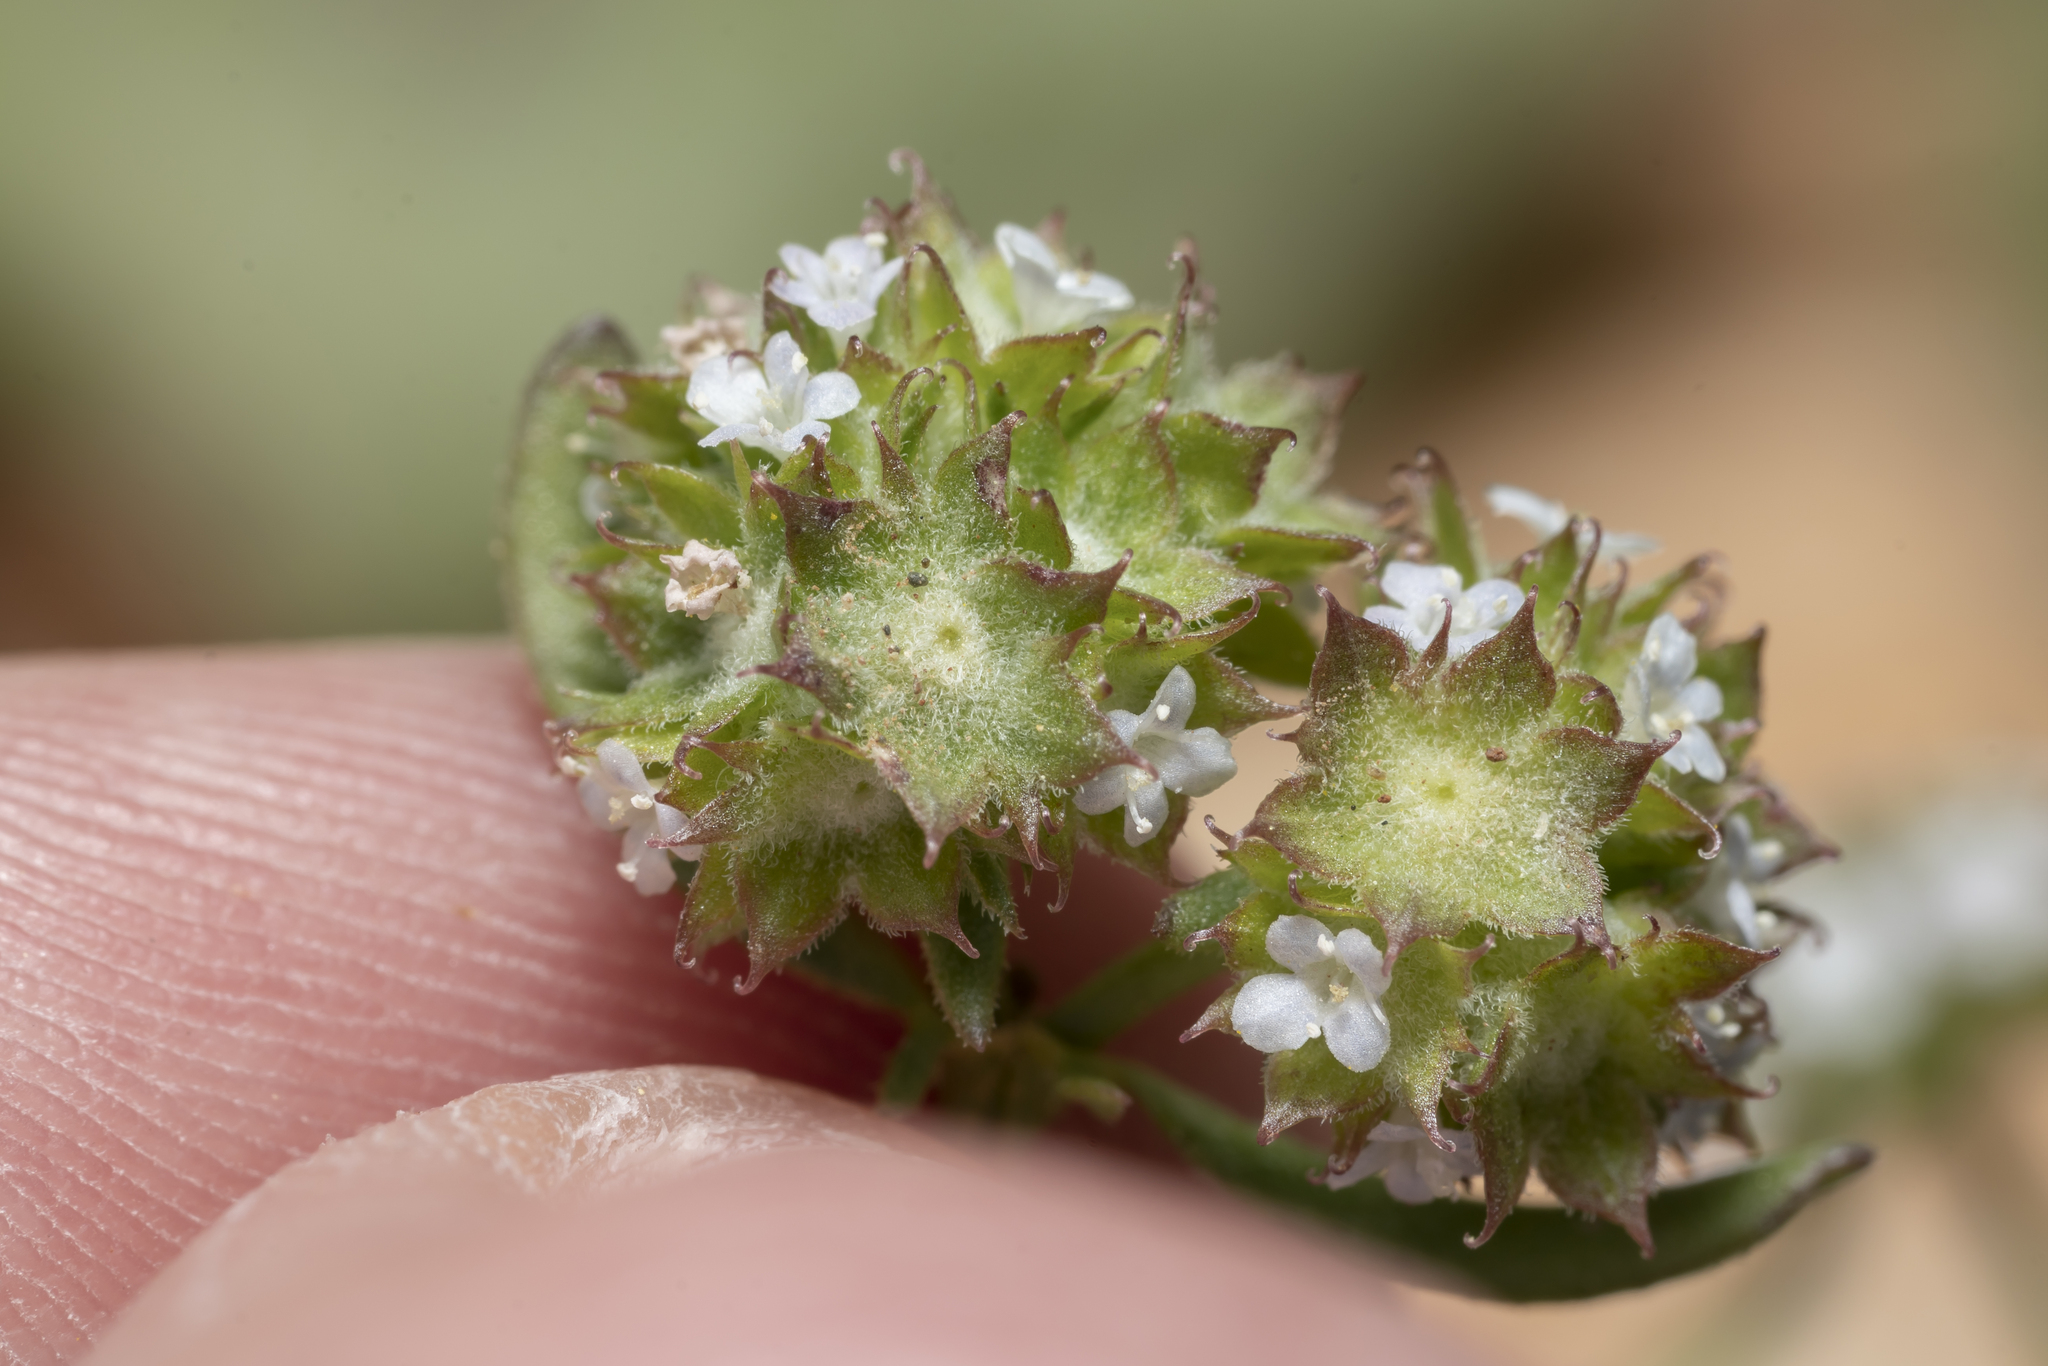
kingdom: Plantae
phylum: Tracheophyta
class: Magnoliopsida
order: Dipsacales
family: Caprifoliaceae
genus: Valerianella
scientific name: Valerianella discoidea
